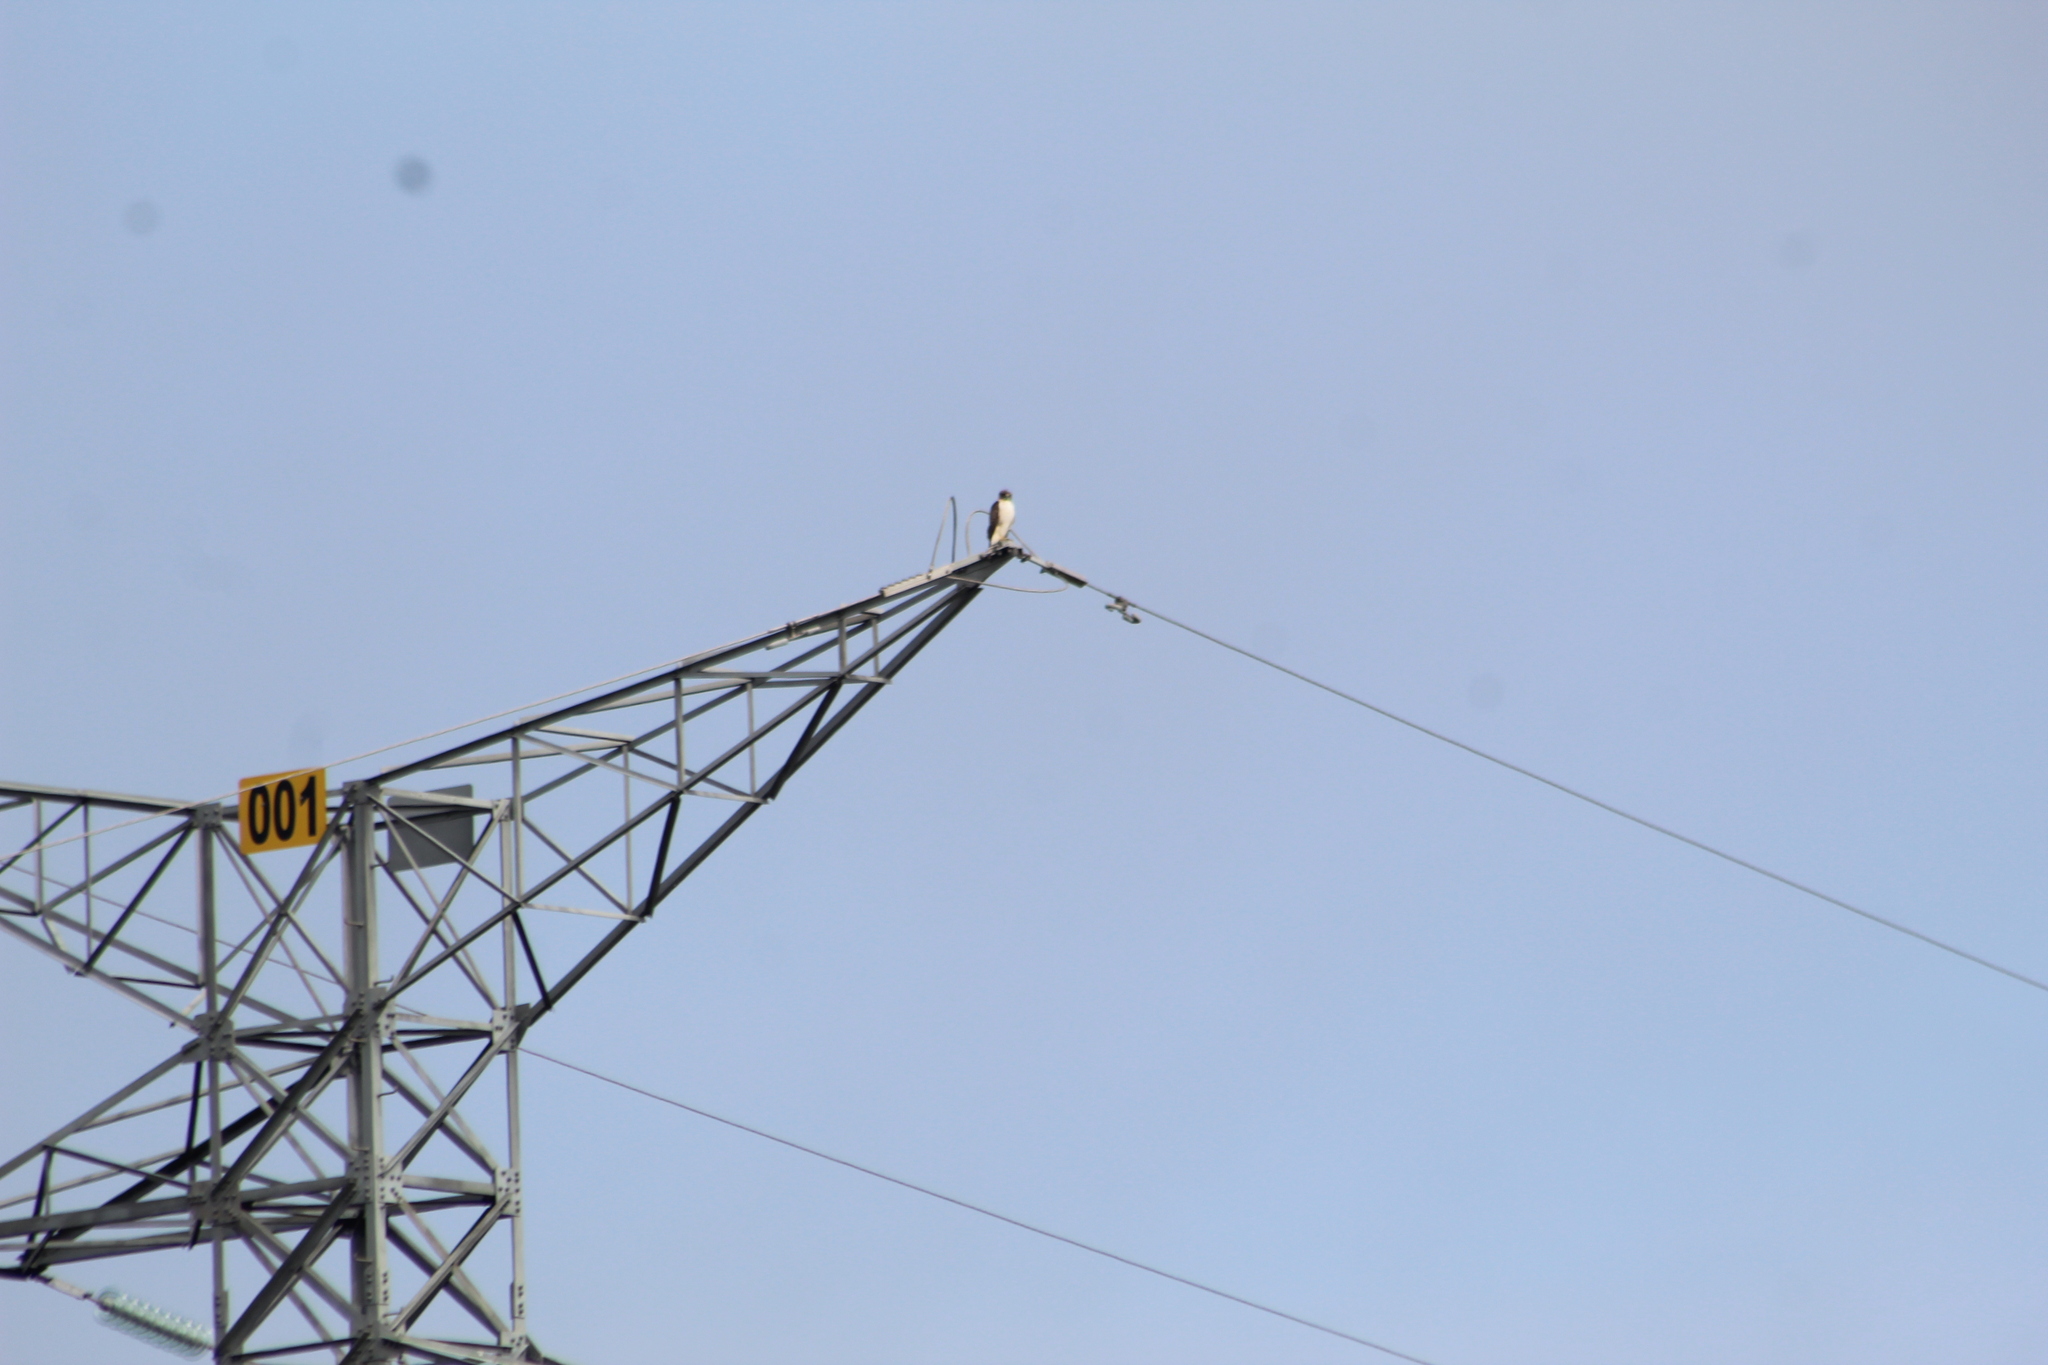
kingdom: Animalia
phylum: Chordata
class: Aves
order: Accipitriformes
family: Accipitridae
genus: Buteo
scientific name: Buteo jamaicensis
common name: Red-tailed hawk
